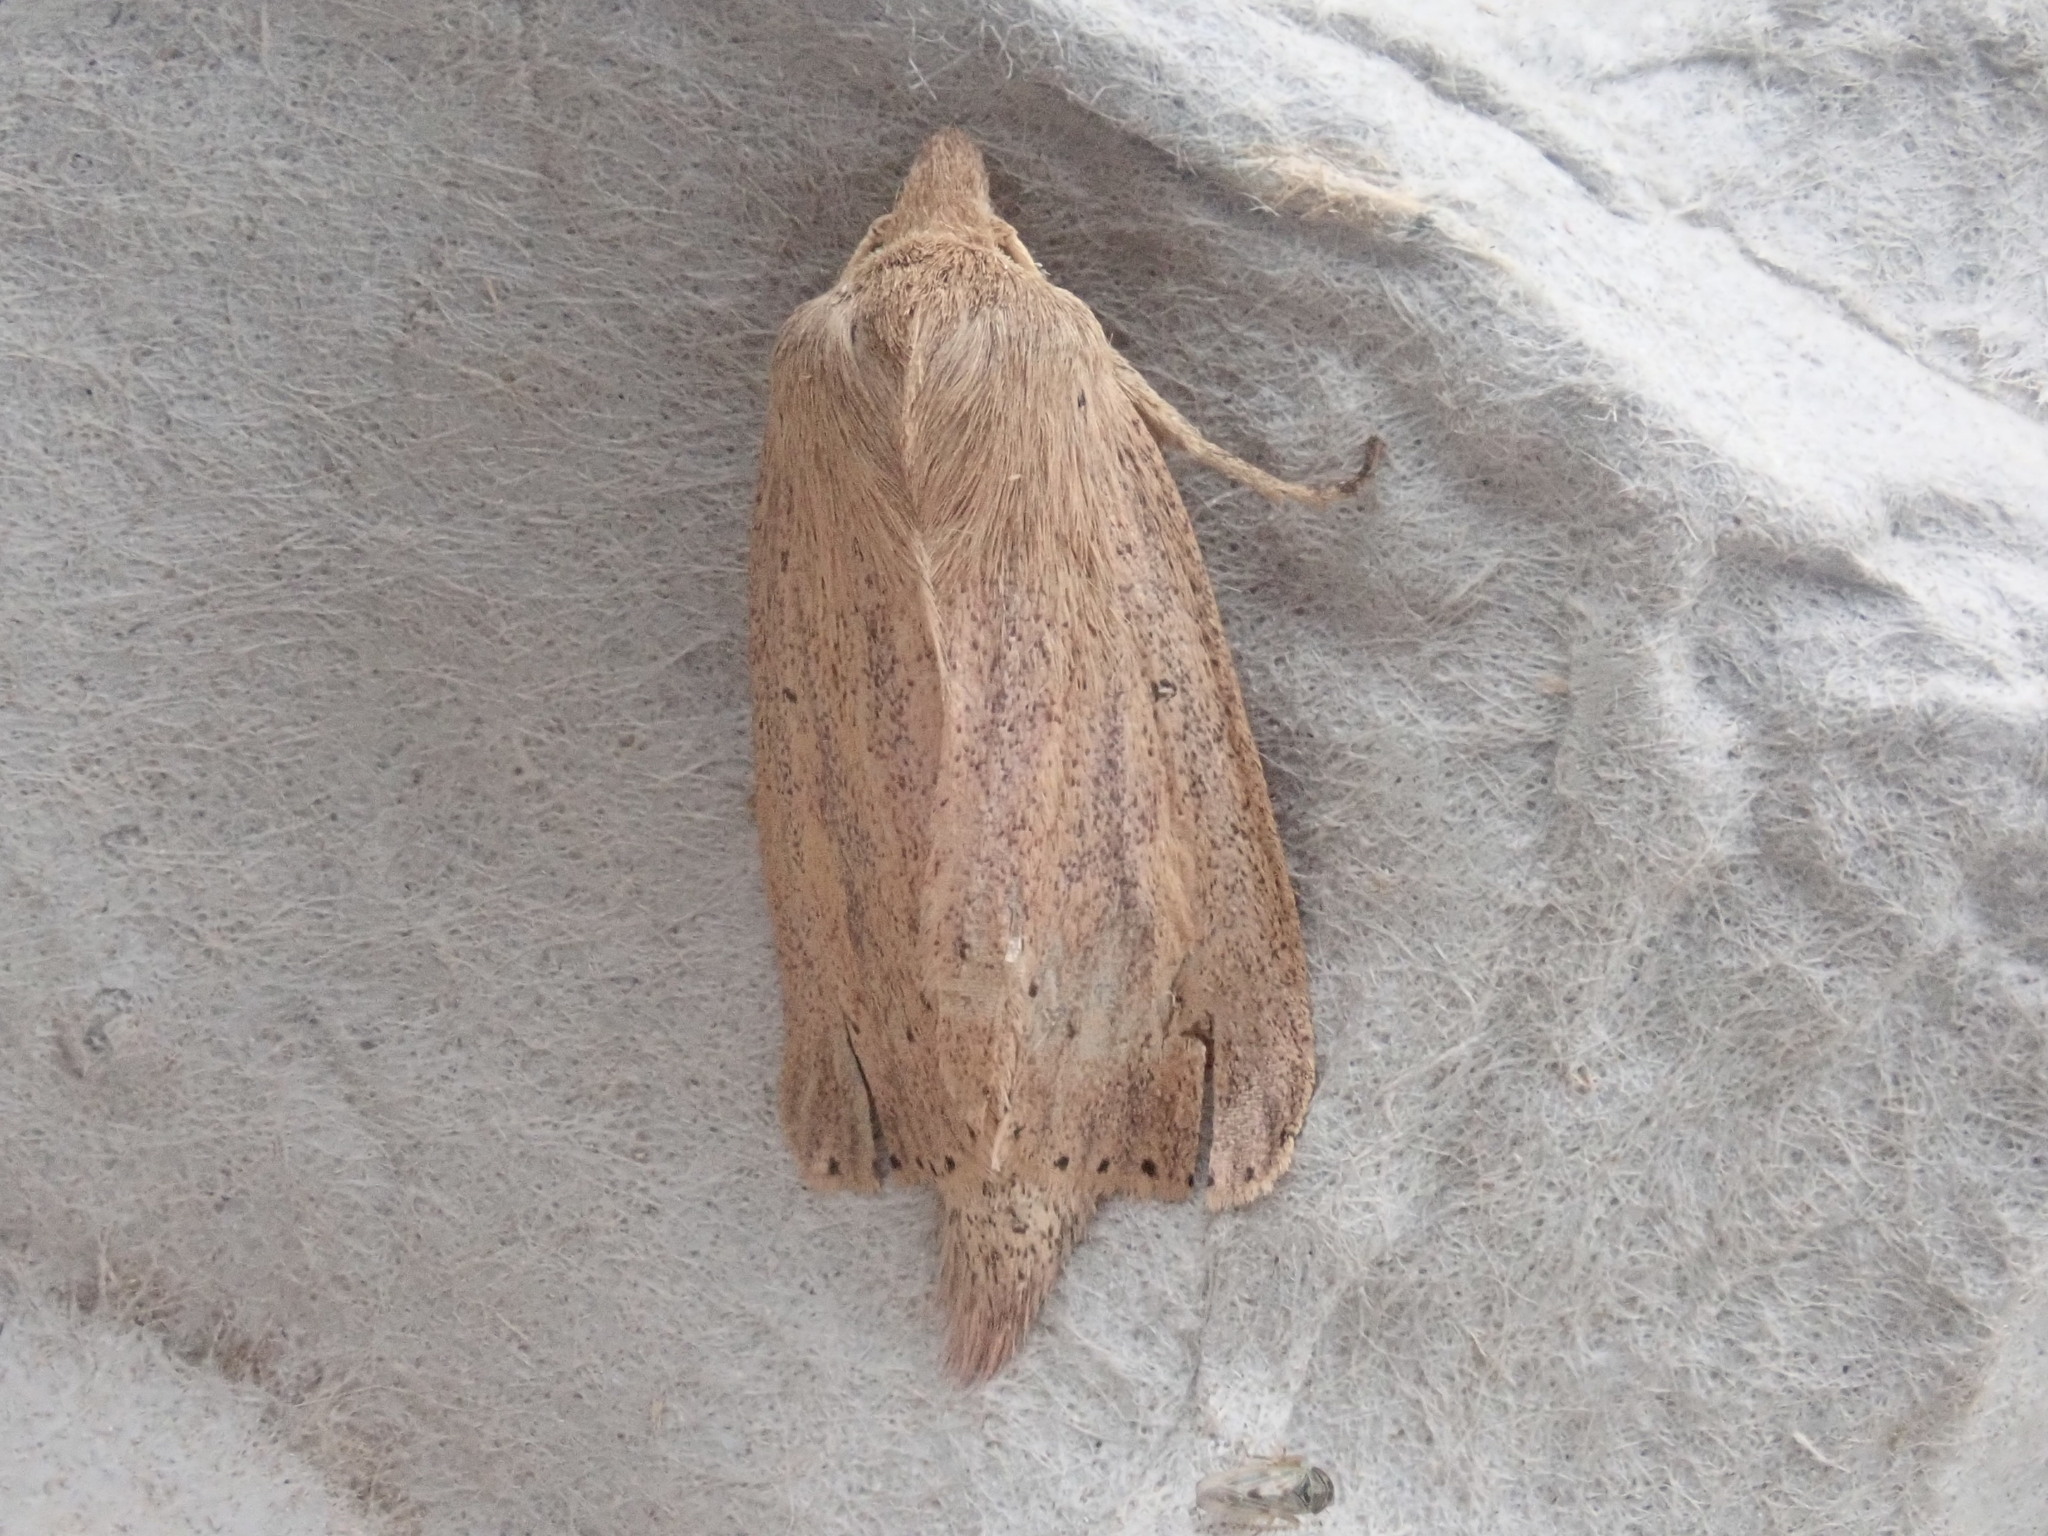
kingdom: Animalia
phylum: Arthropoda
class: Insecta
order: Lepidoptera
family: Noctuidae
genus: Globia
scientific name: Globia oblonga
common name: Oblong sedge borer moth
